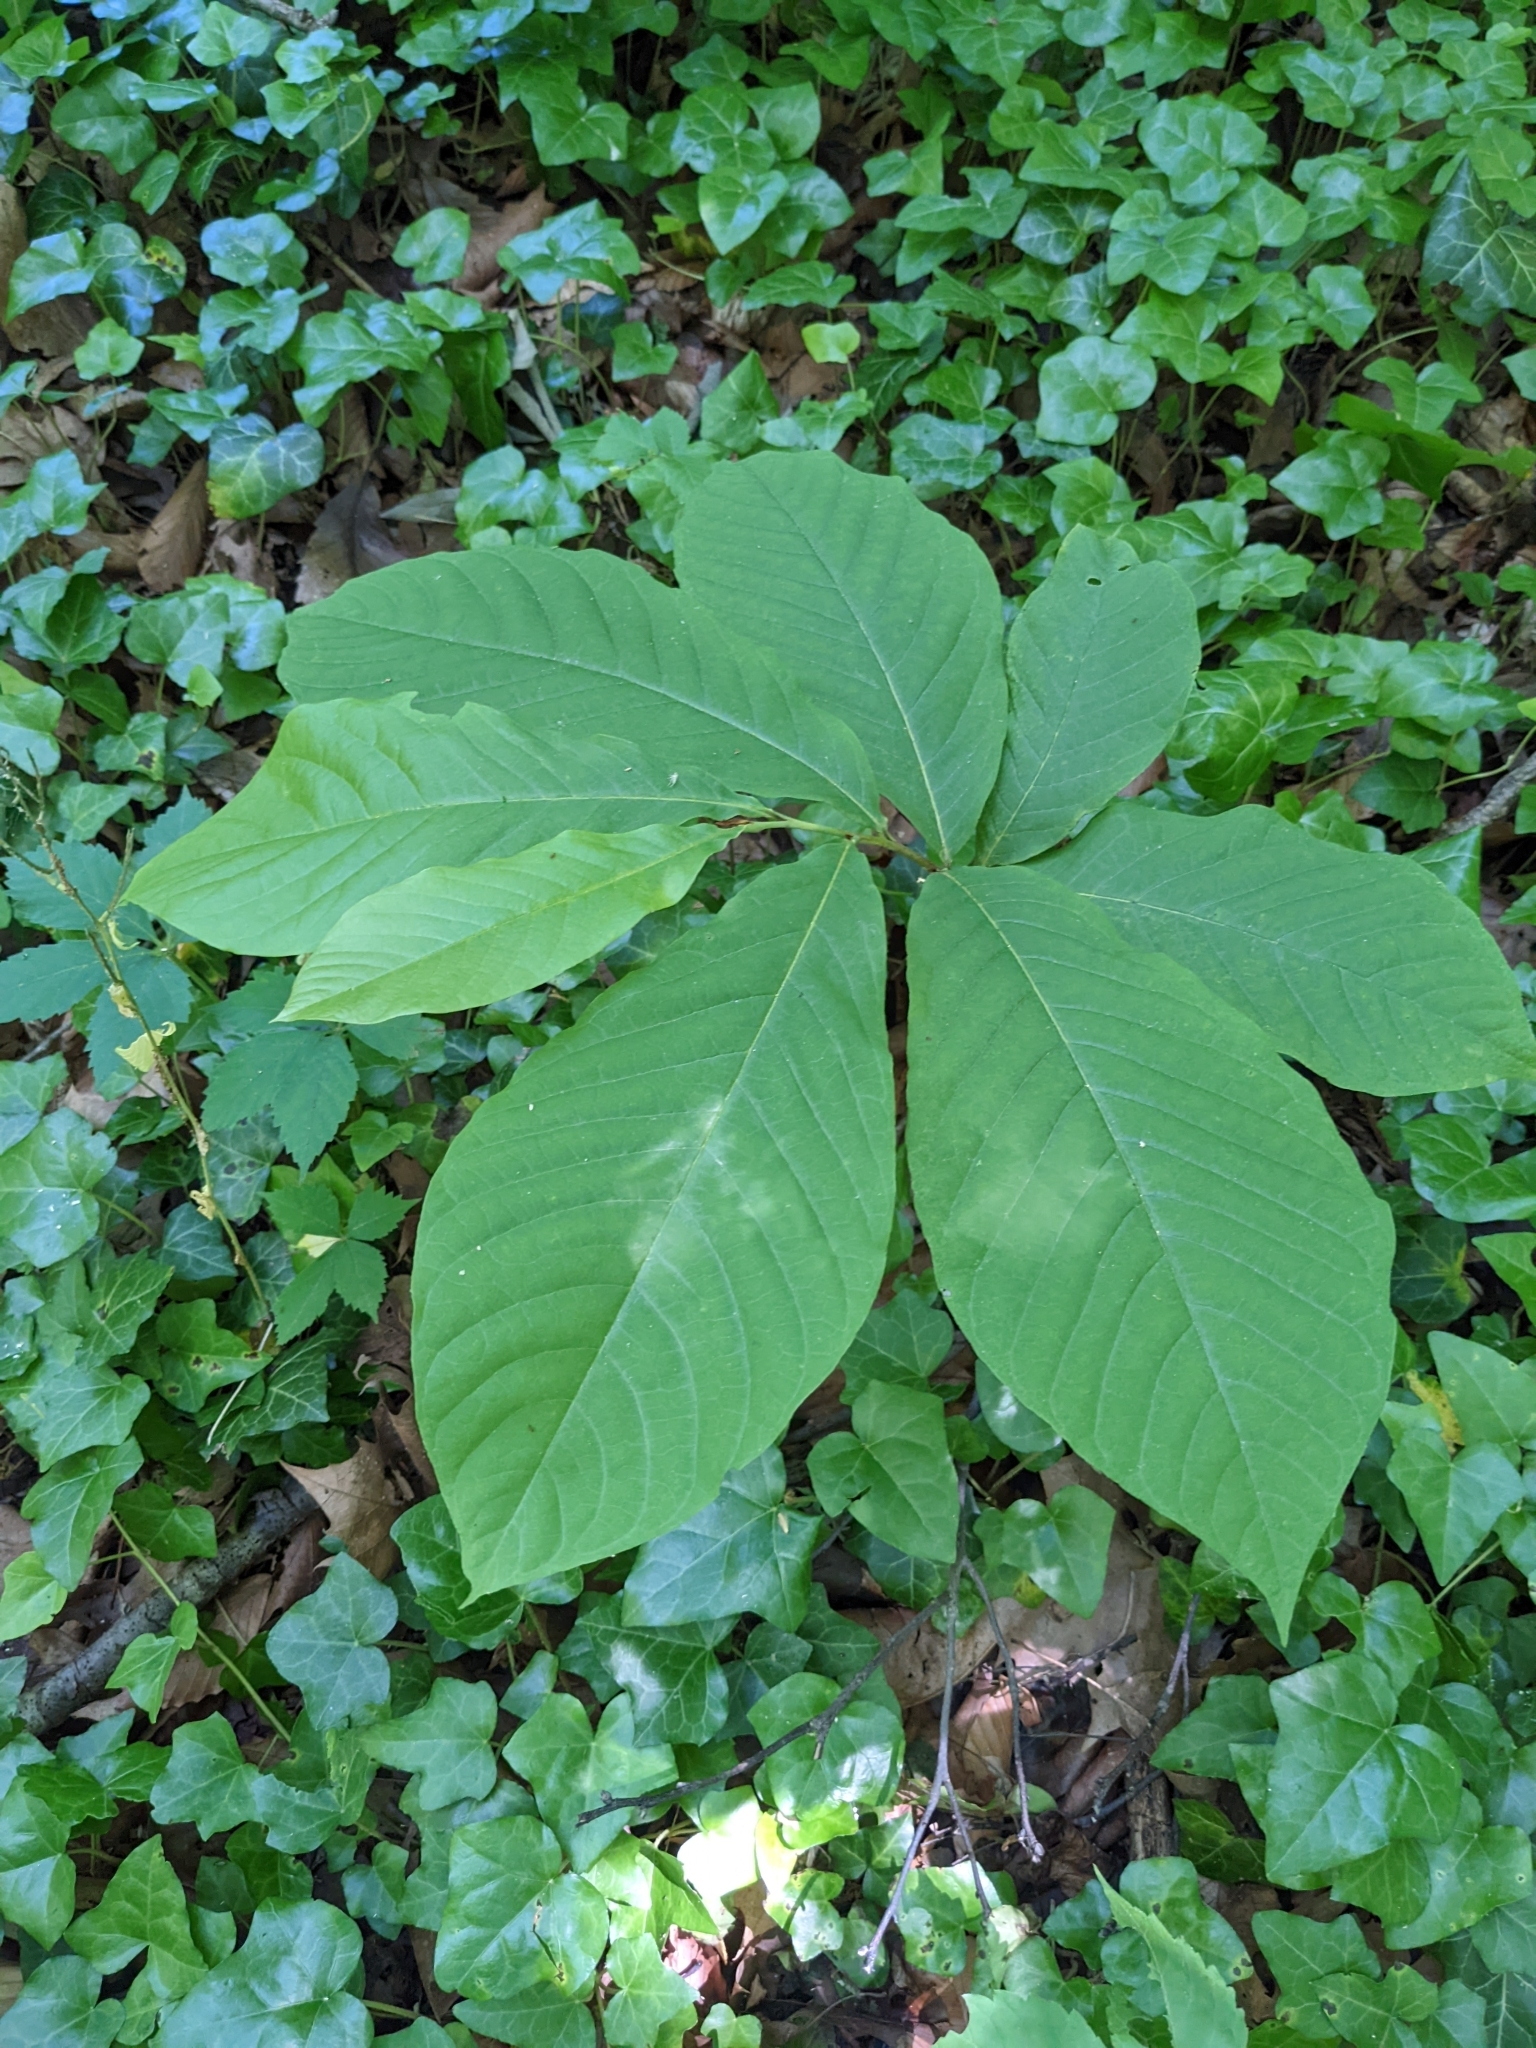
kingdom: Plantae
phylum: Tracheophyta
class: Magnoliopsida
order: Magnoliales
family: Annonaceae
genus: Asimina
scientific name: Asimina triloba
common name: Dog-banana
